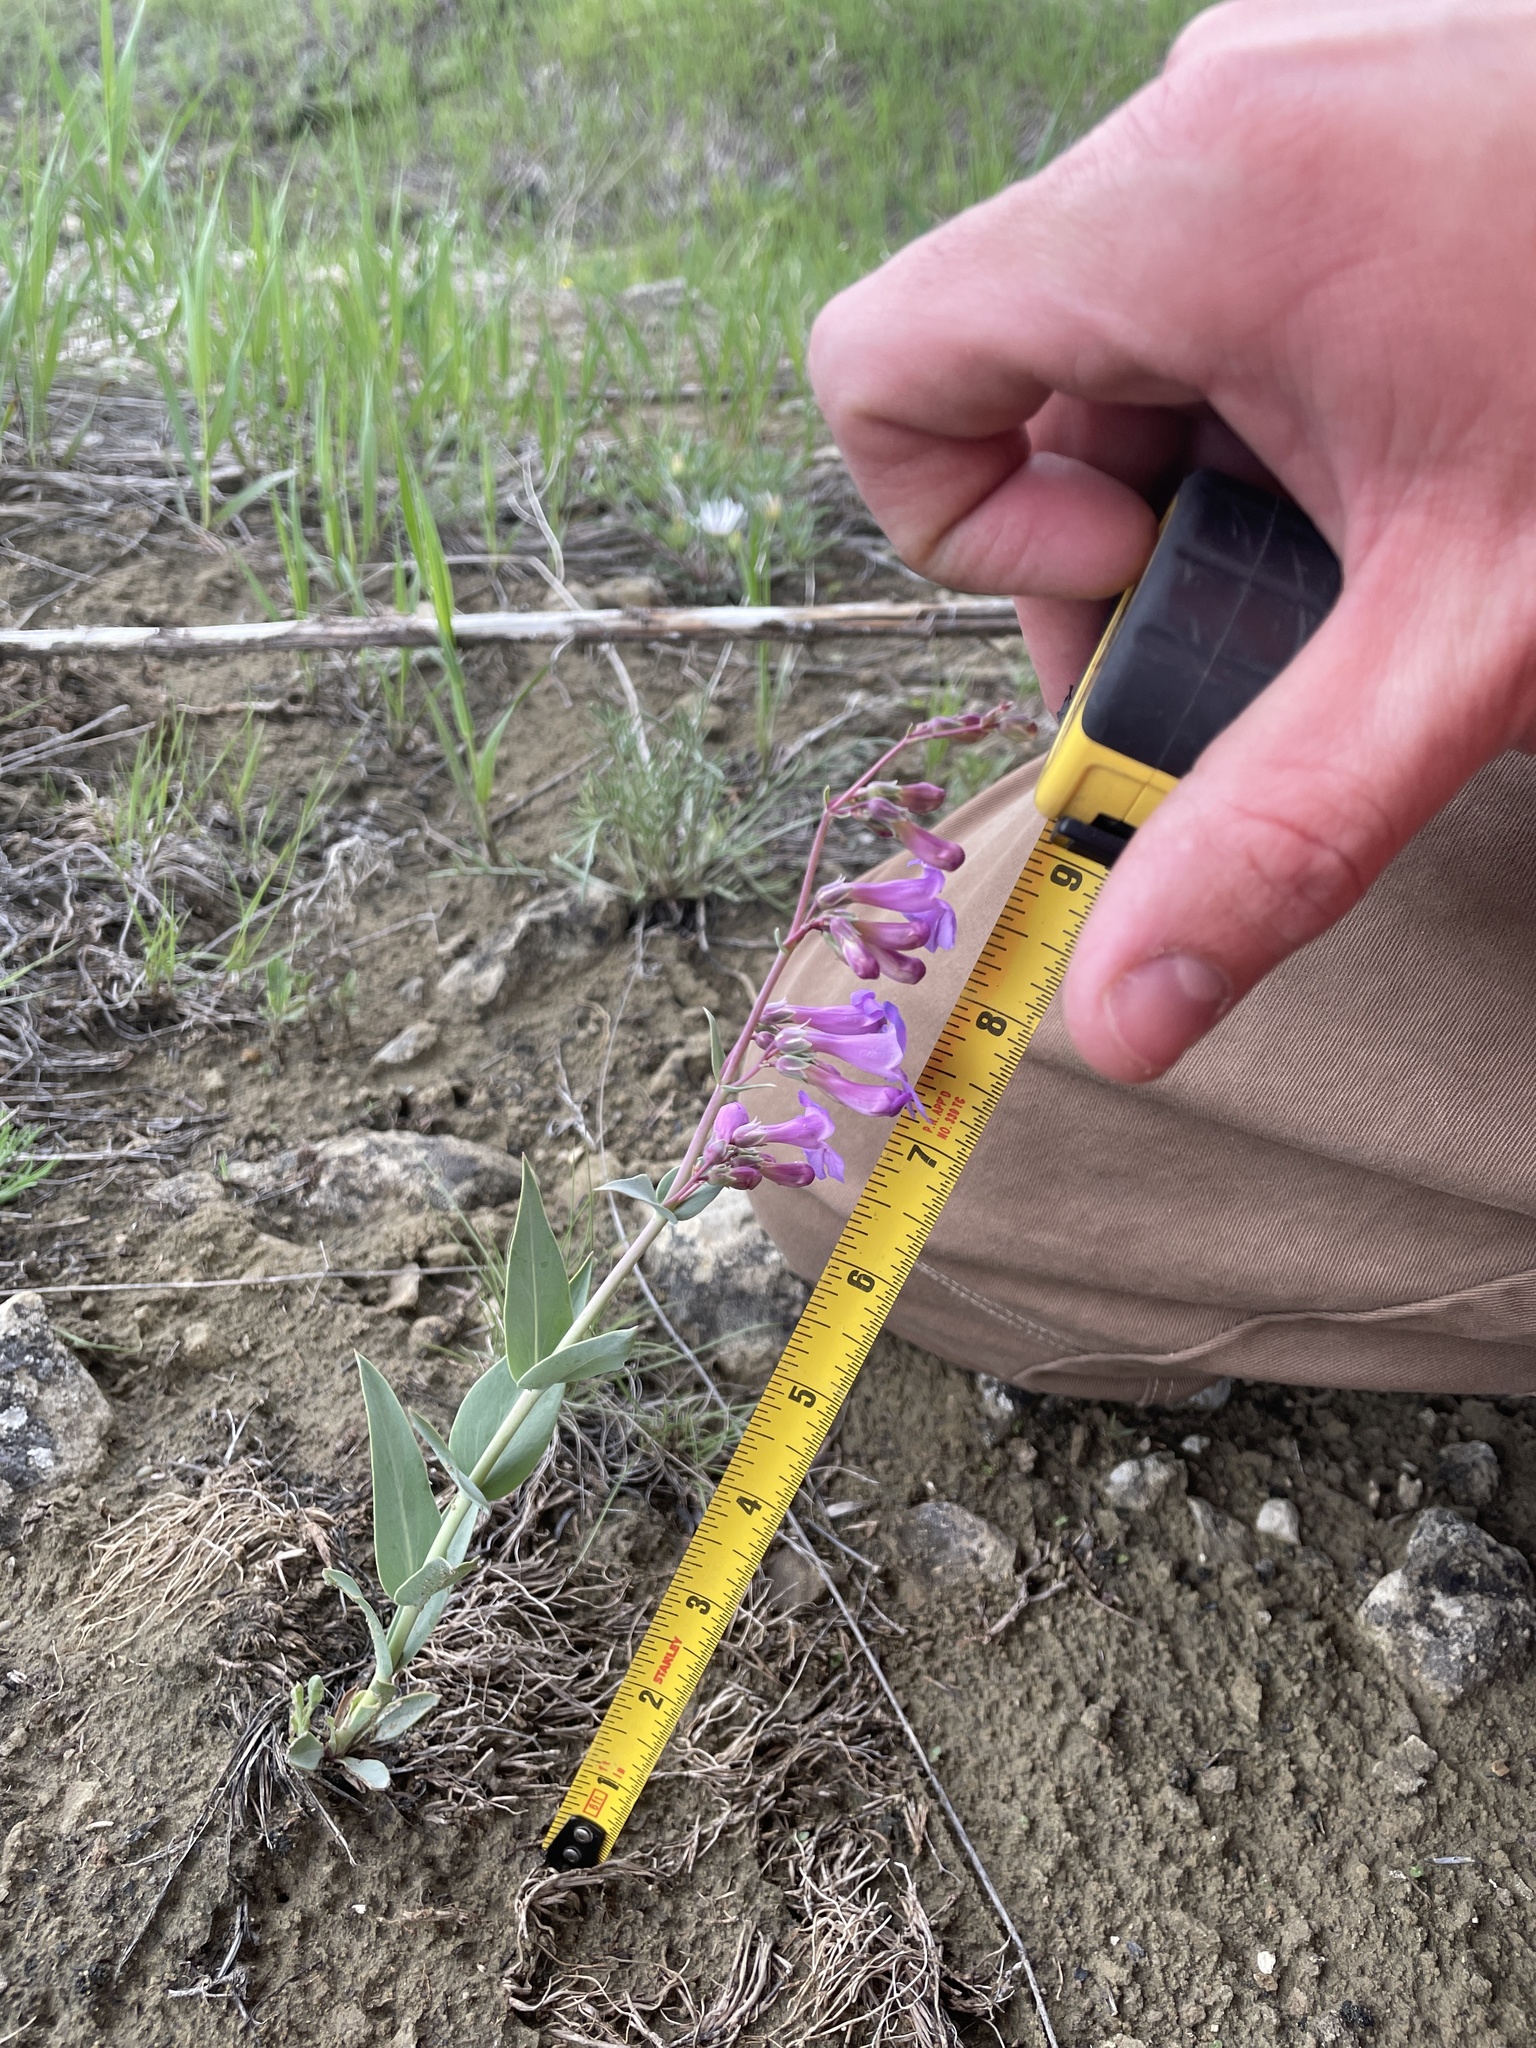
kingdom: Plantae
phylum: Tracheophyta
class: Magnoliopsida
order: Lamiales
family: Plantaginaceae
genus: Penstemon
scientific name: Penstemon secundiflorus
